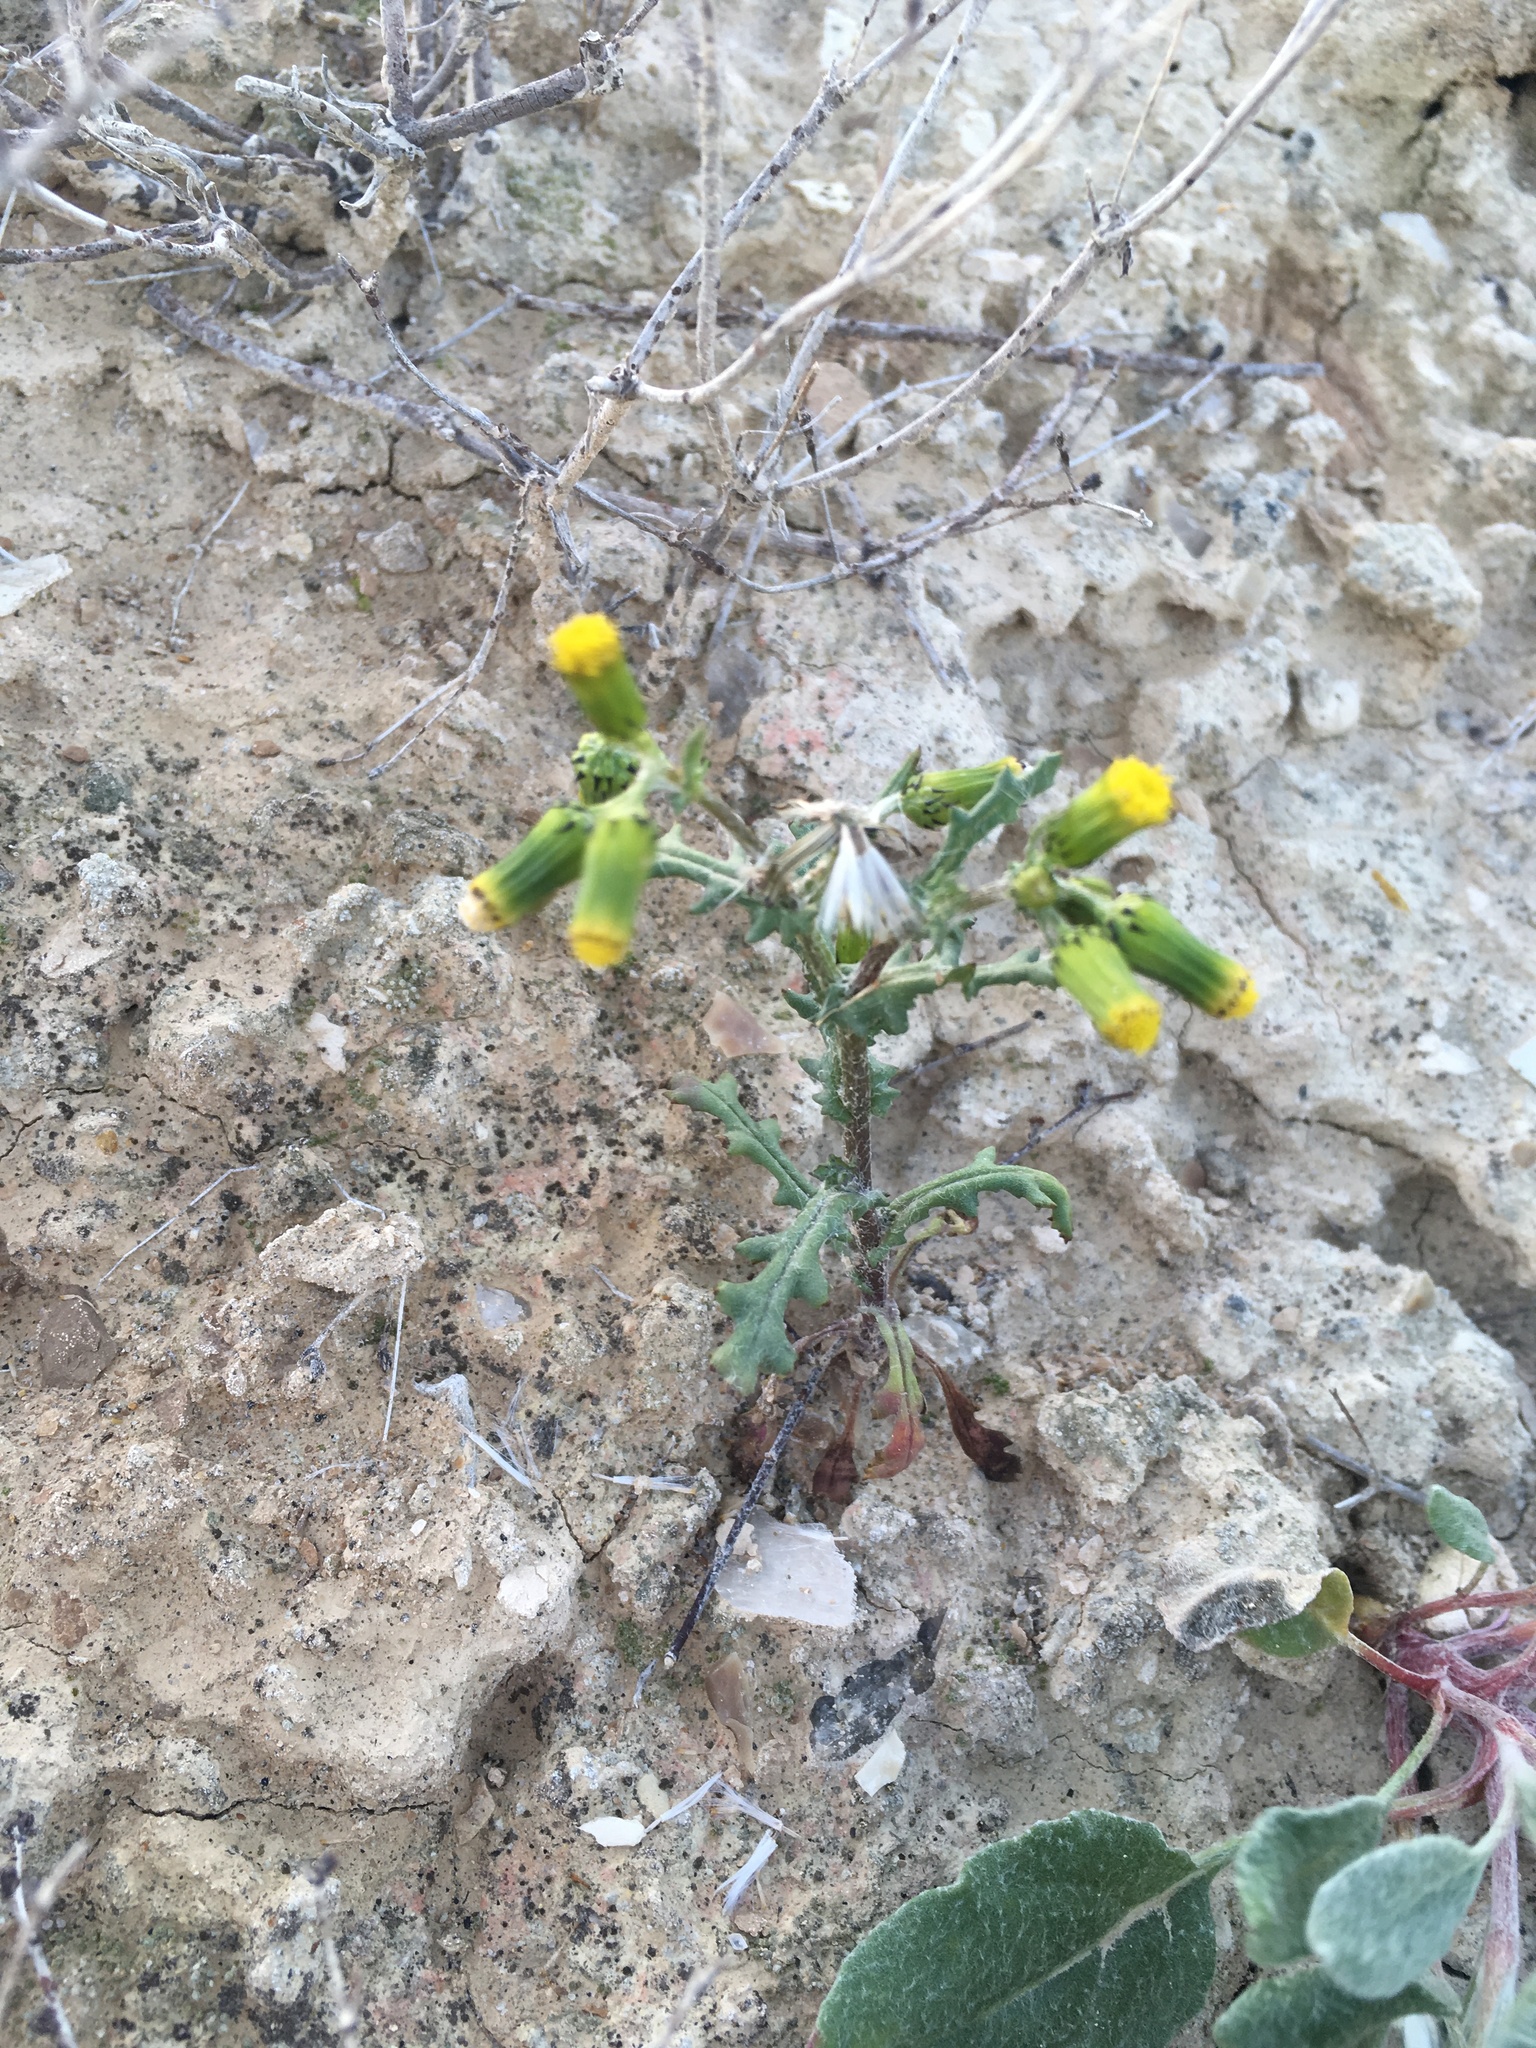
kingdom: Plantae
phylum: Tracheophyta
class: Magnoliopsida
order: Asterales
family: Asteraceae
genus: Senecio
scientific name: Senecio vulgaris
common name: Old-man-in-the-spring
